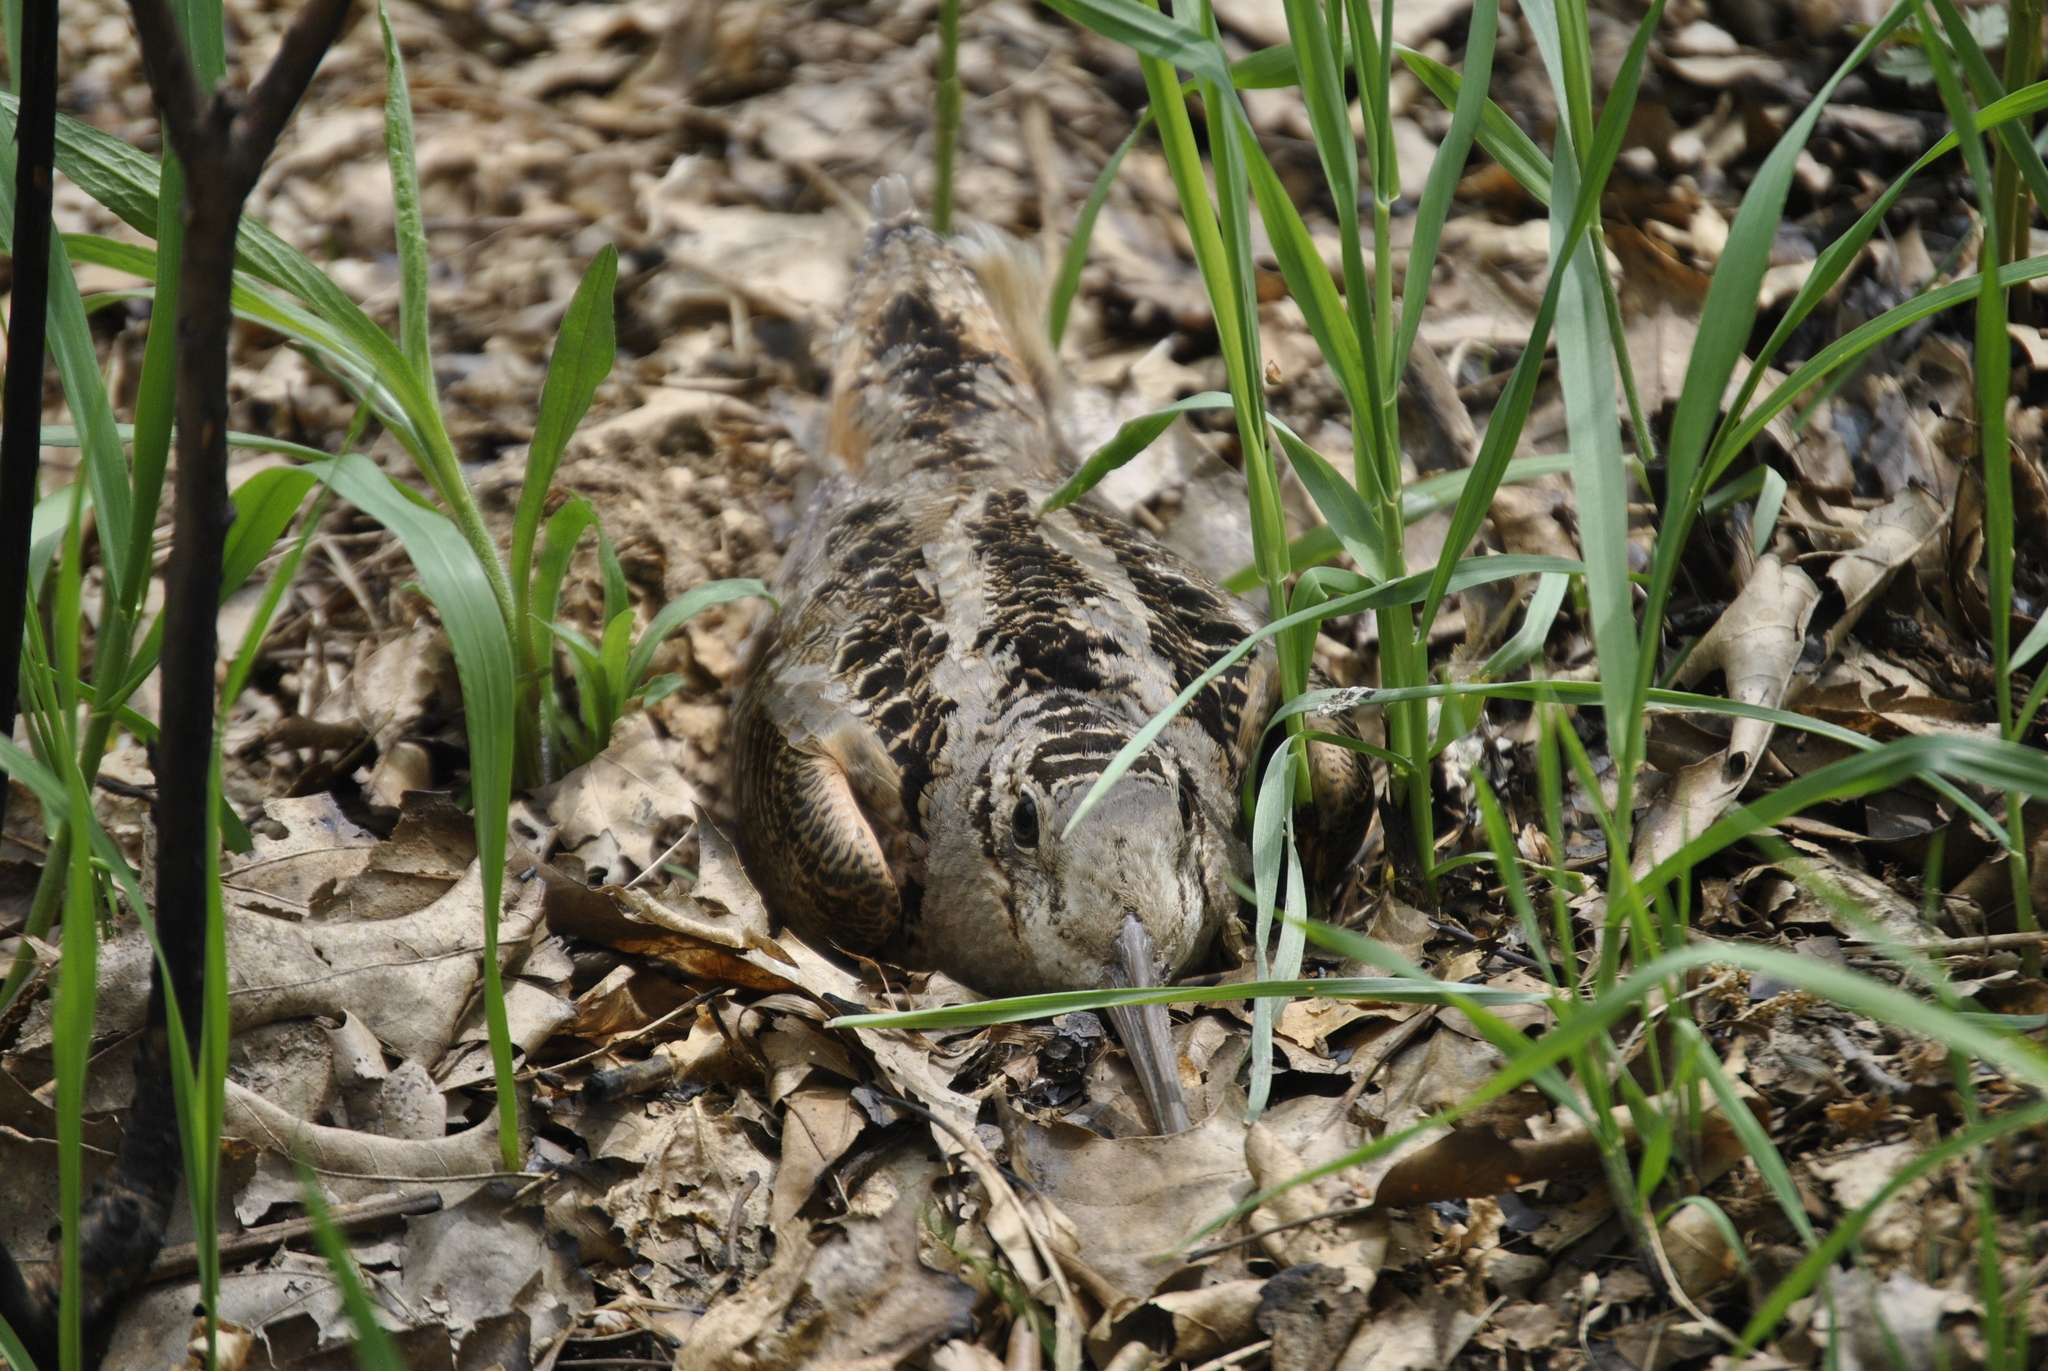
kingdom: Animalia
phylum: Chordata
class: Aves
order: Charadriiformes
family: Scolopacidae
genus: Scolopax
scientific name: Scolopax minor
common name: American woodcock
